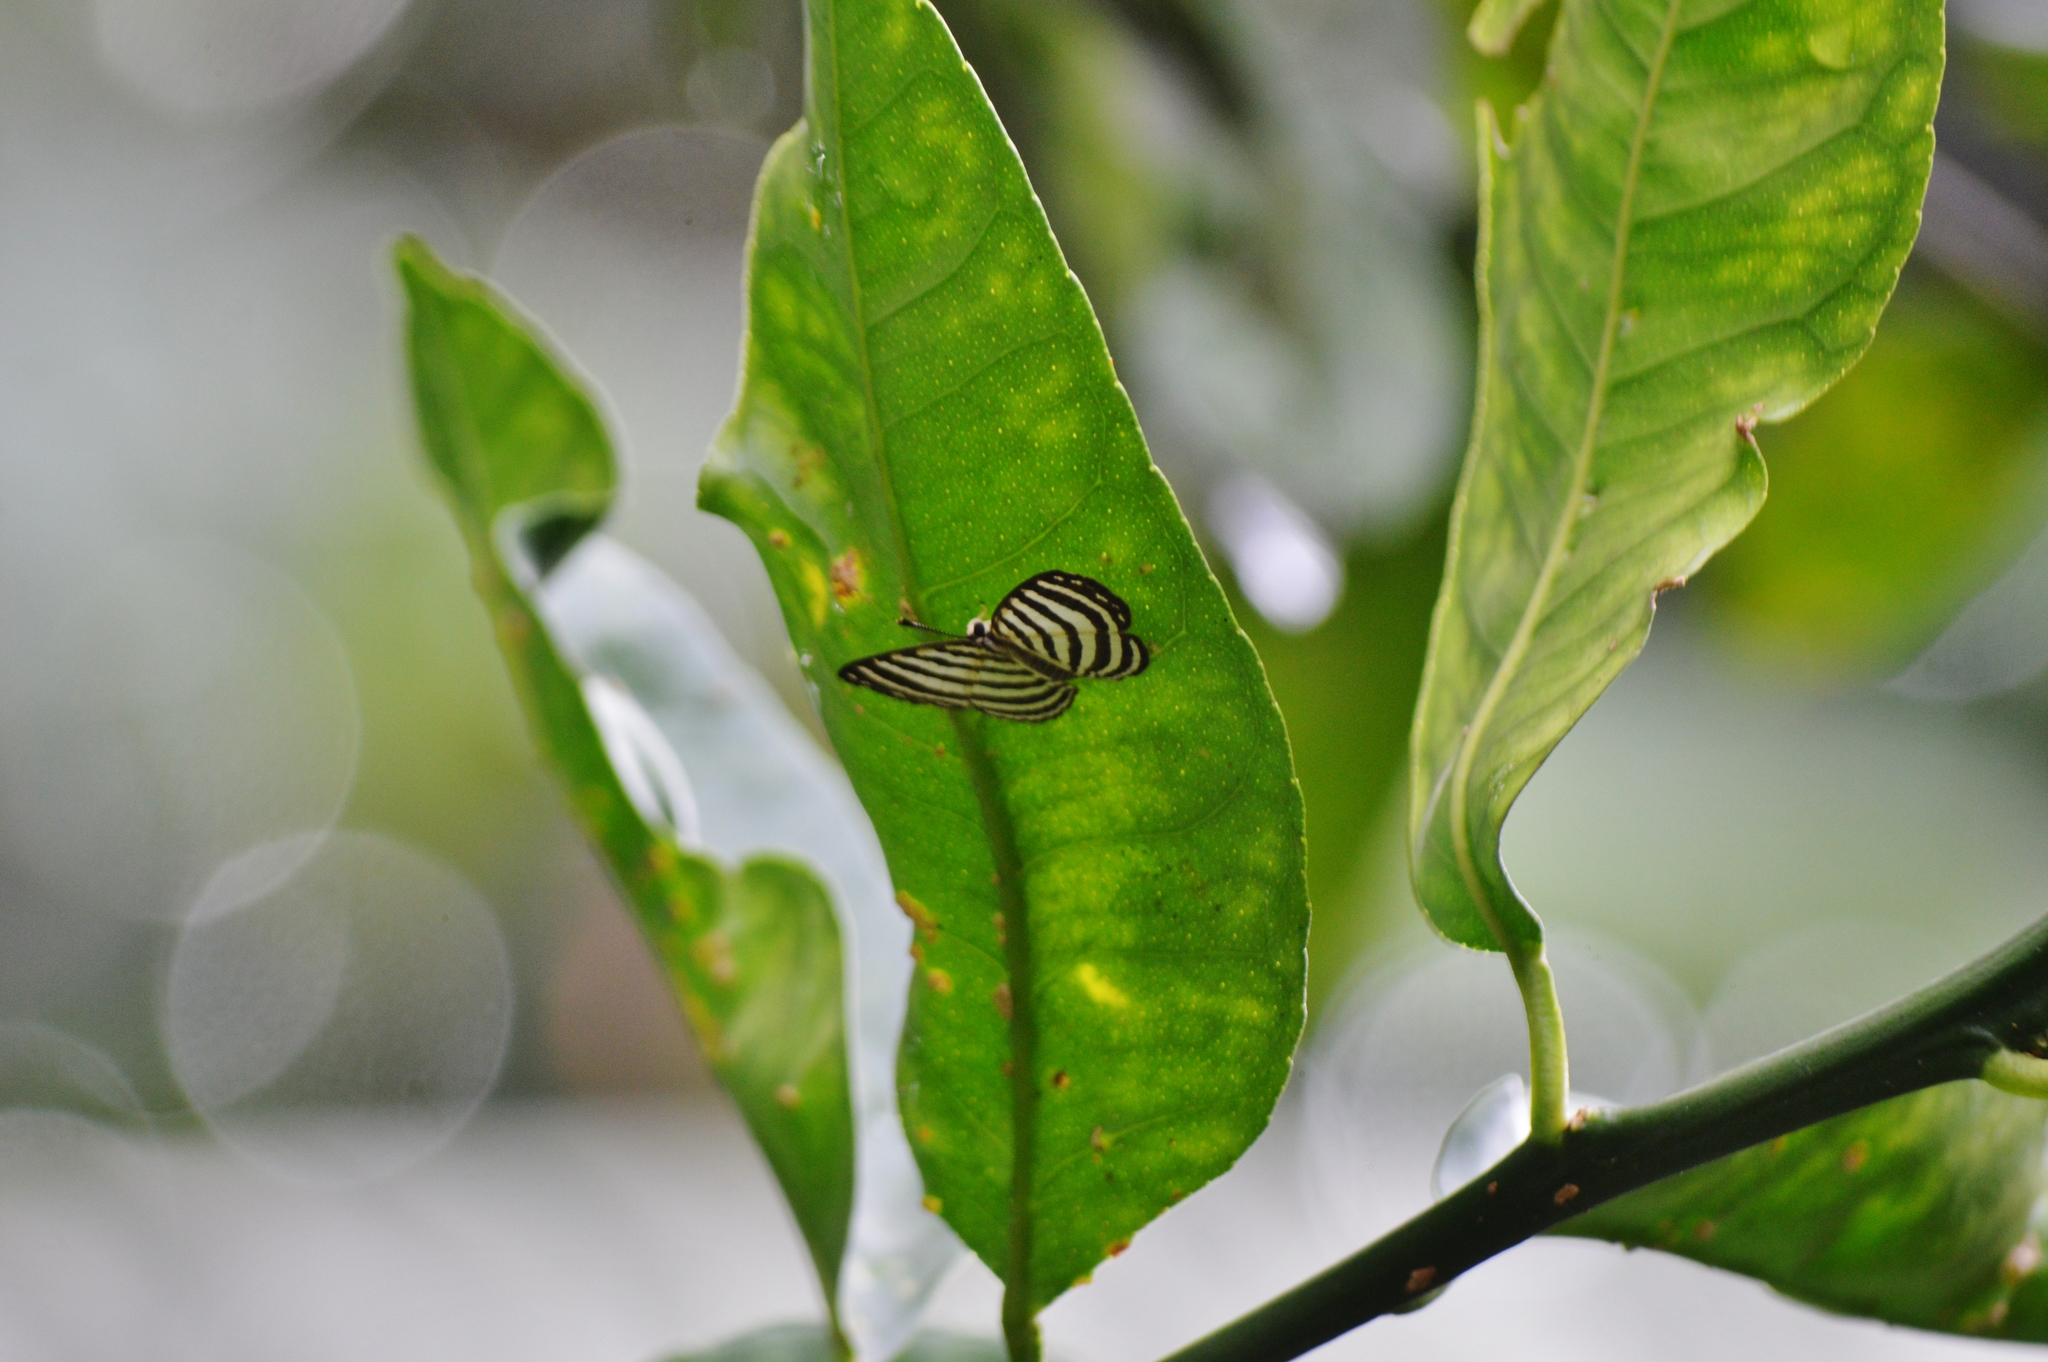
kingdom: Animalia
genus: Hyphilaria
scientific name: Hyphilaria parthenis
